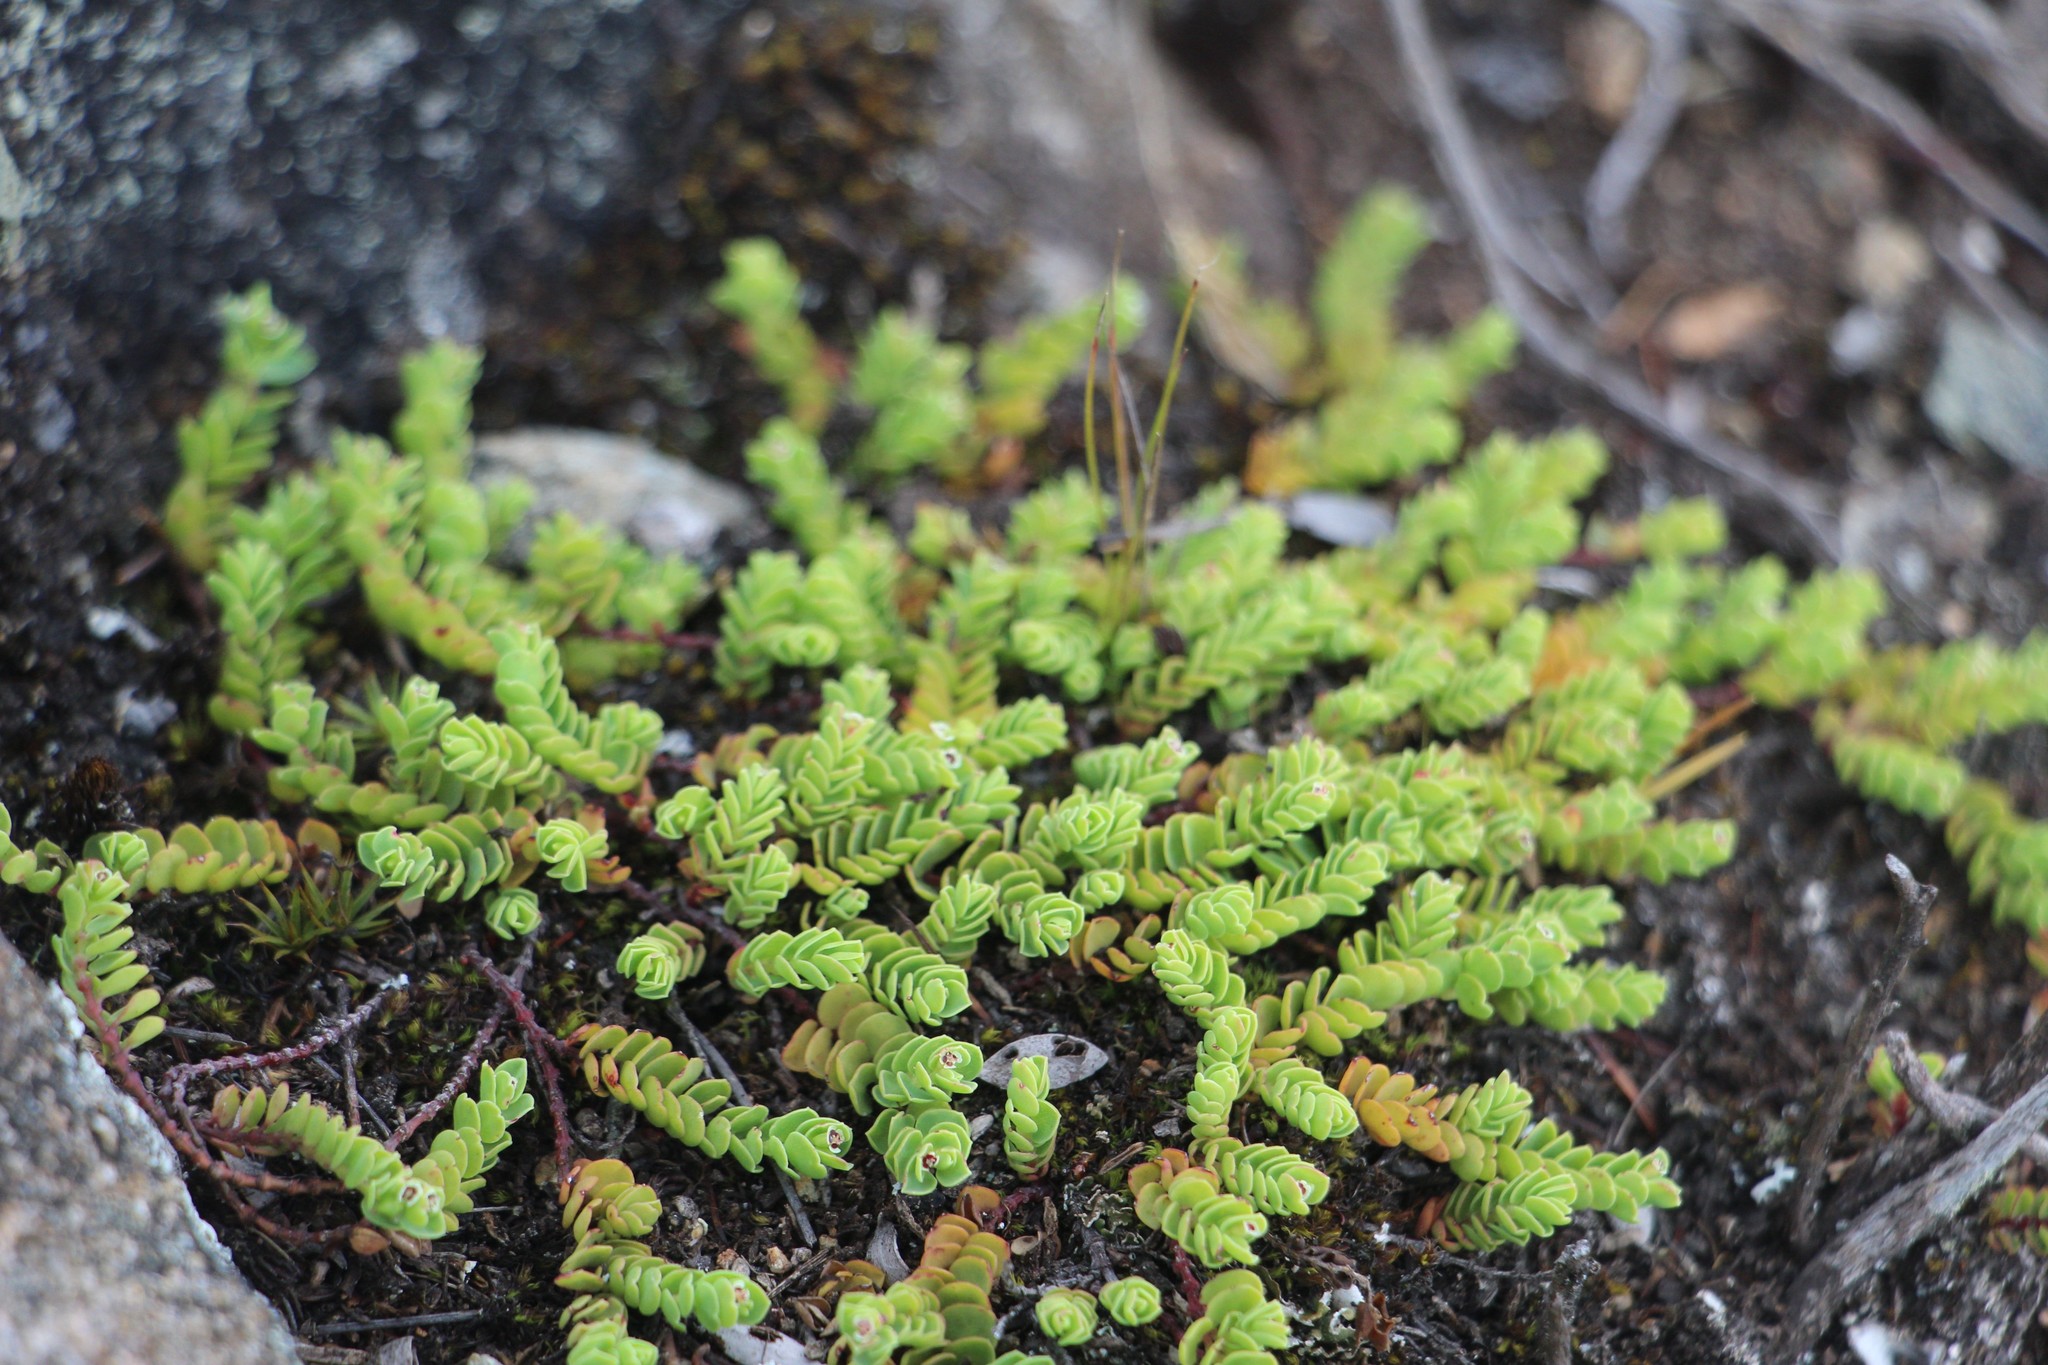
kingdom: Plantae
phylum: Tracheophyta
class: Magnoliopsida
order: Malpighiales
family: Euphorbiaceae
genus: Euphorbia
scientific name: Euphorbia orbiculata
